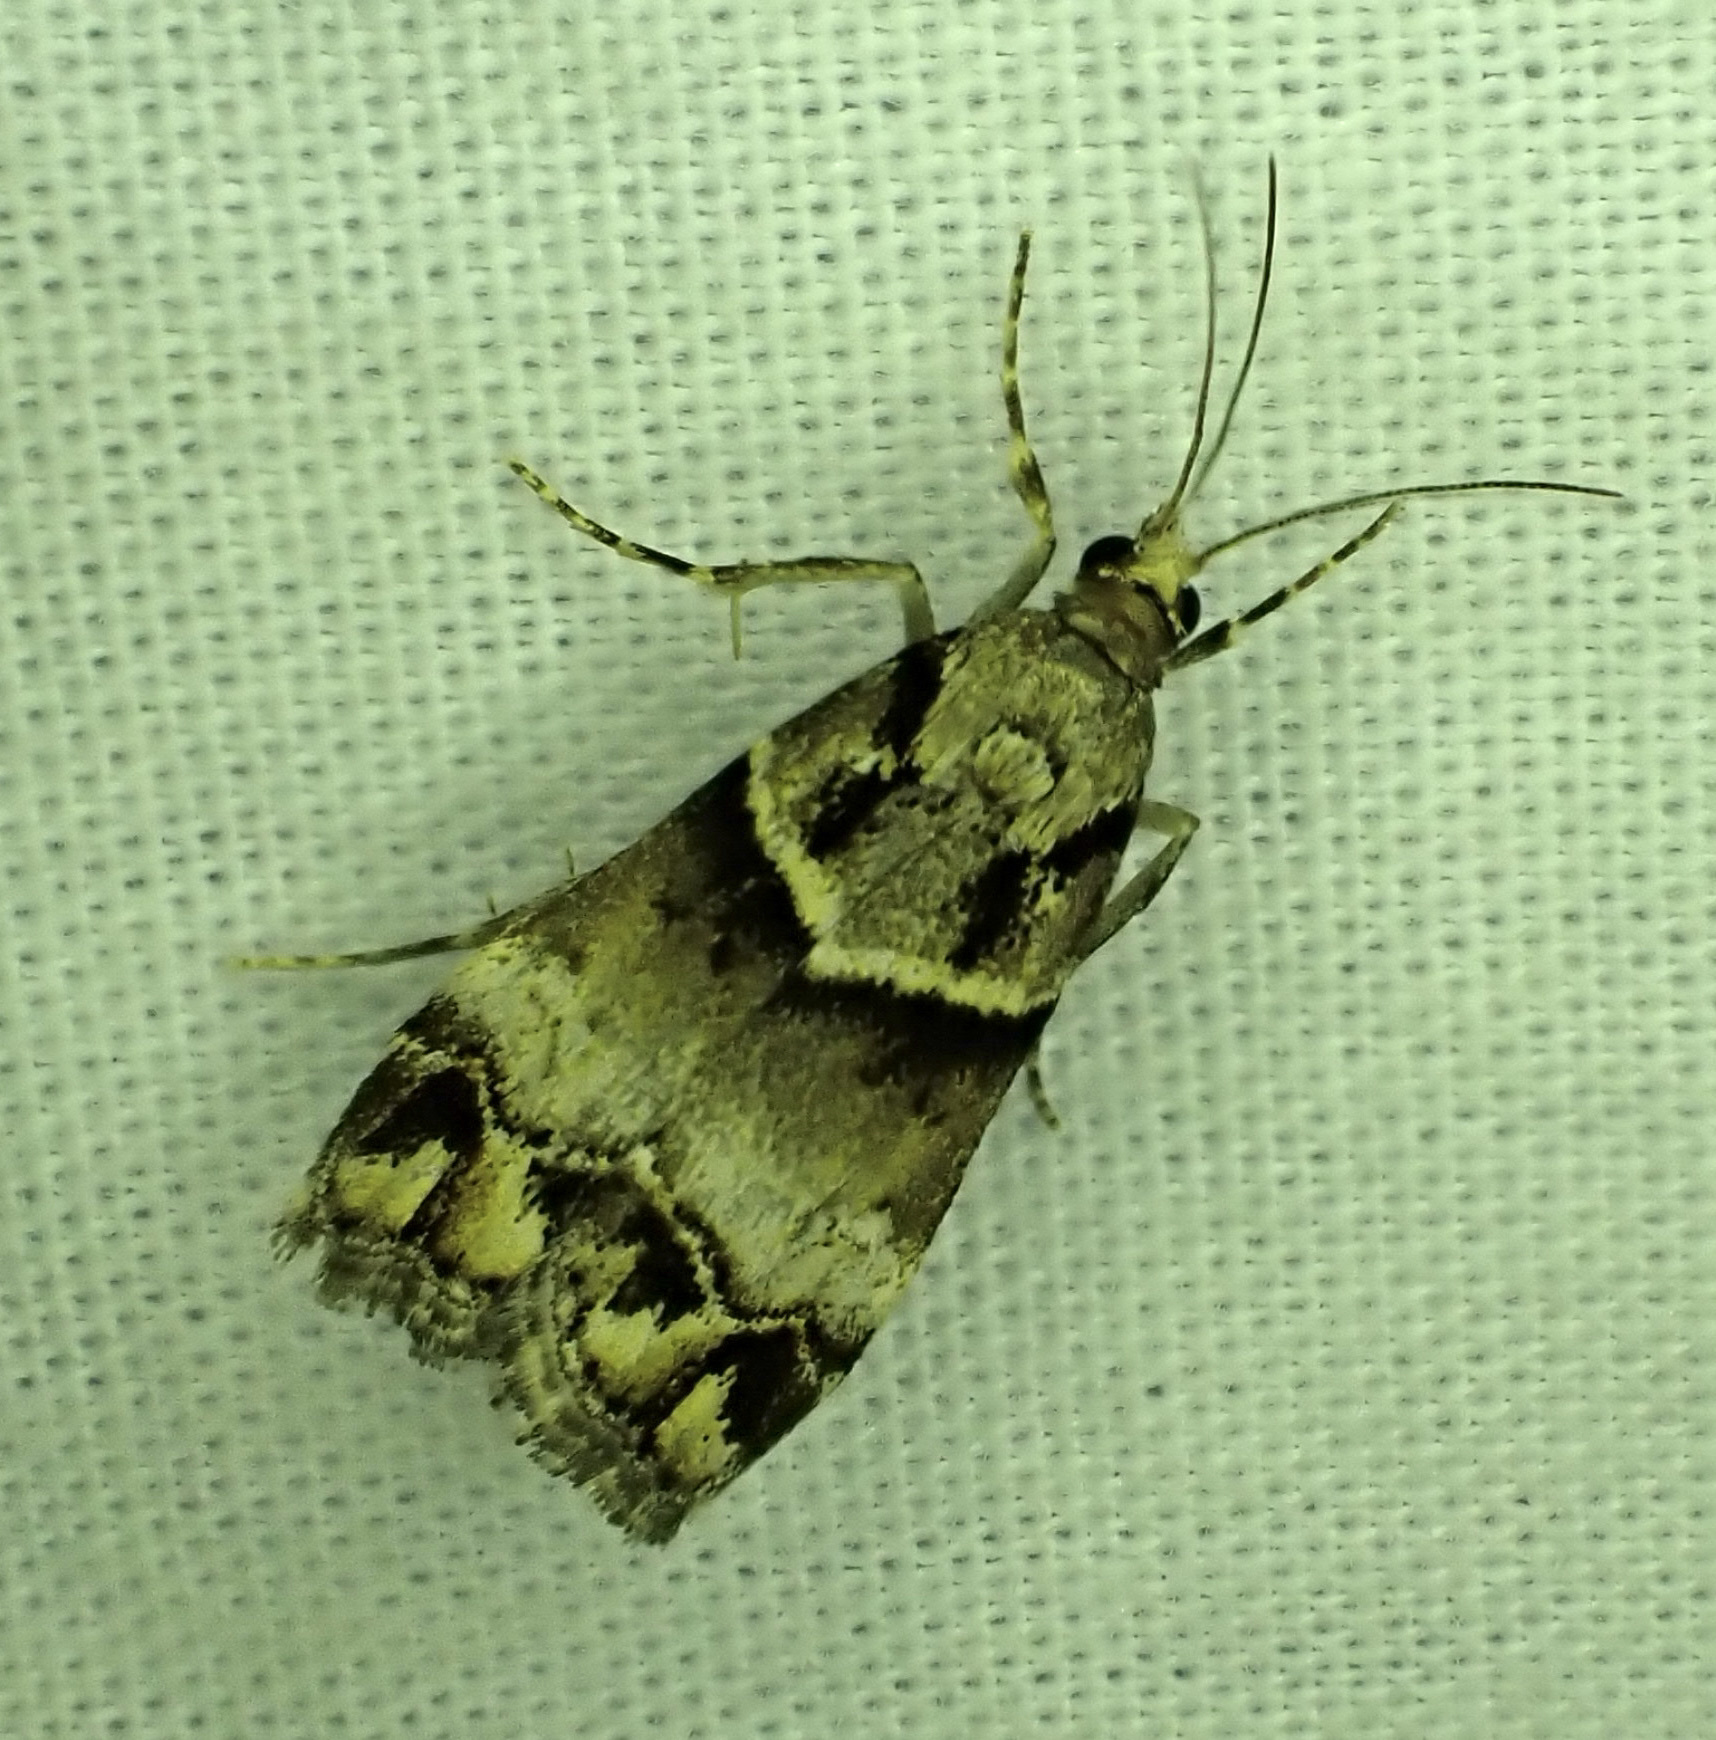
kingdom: Animalia
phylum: Arthropoda
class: Insecta
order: Lepidoptera
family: Crambidae
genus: Eudonia
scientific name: Eudonia periphanes
